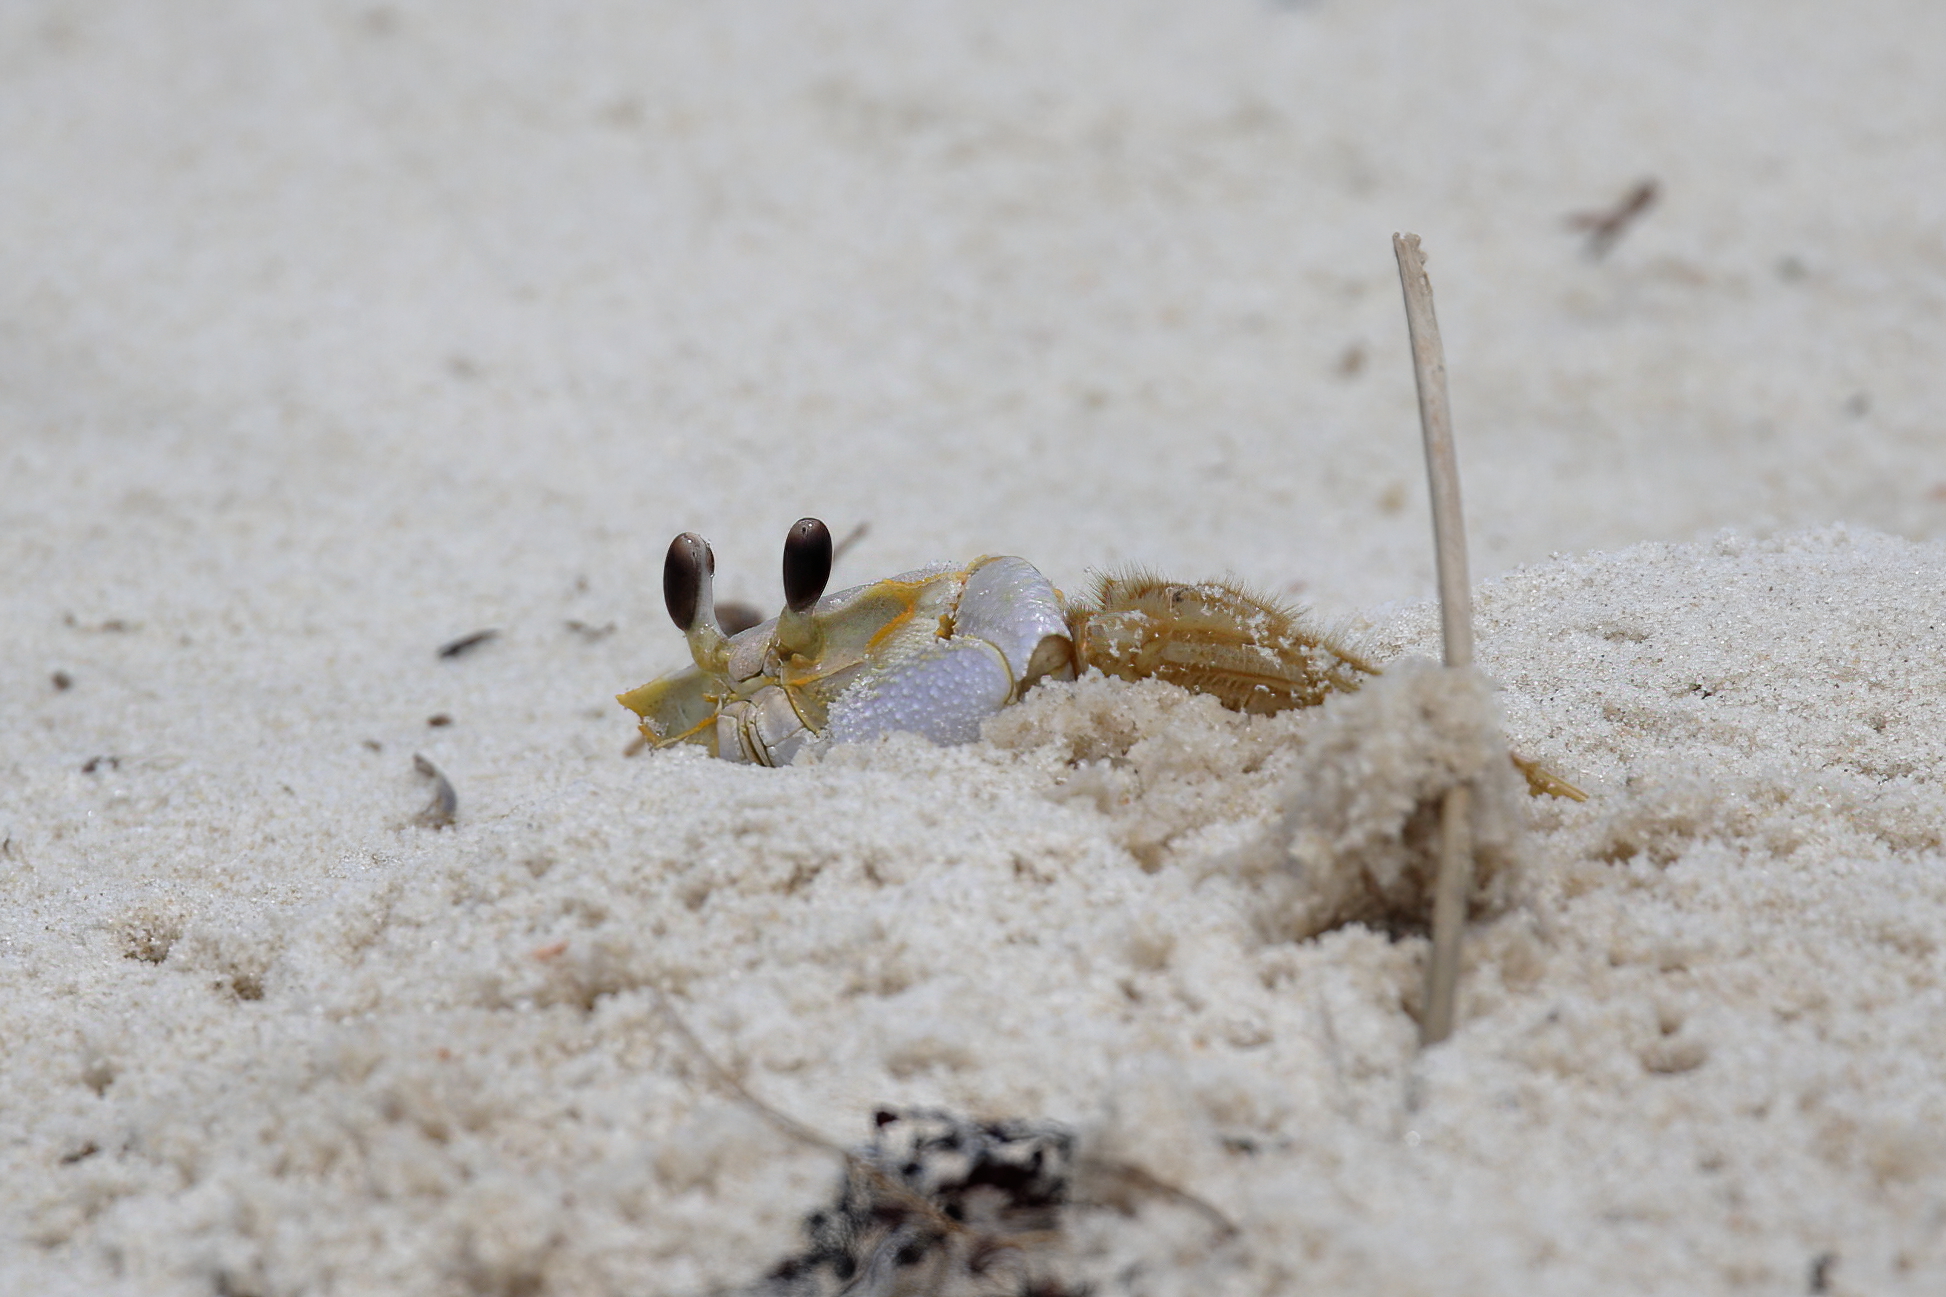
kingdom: Animalia
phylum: Arthropoda
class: Malacostraca
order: Decapoda
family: Ocypodidae
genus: Ocypode
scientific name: Ocypode quadrata
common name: Ghost crab
